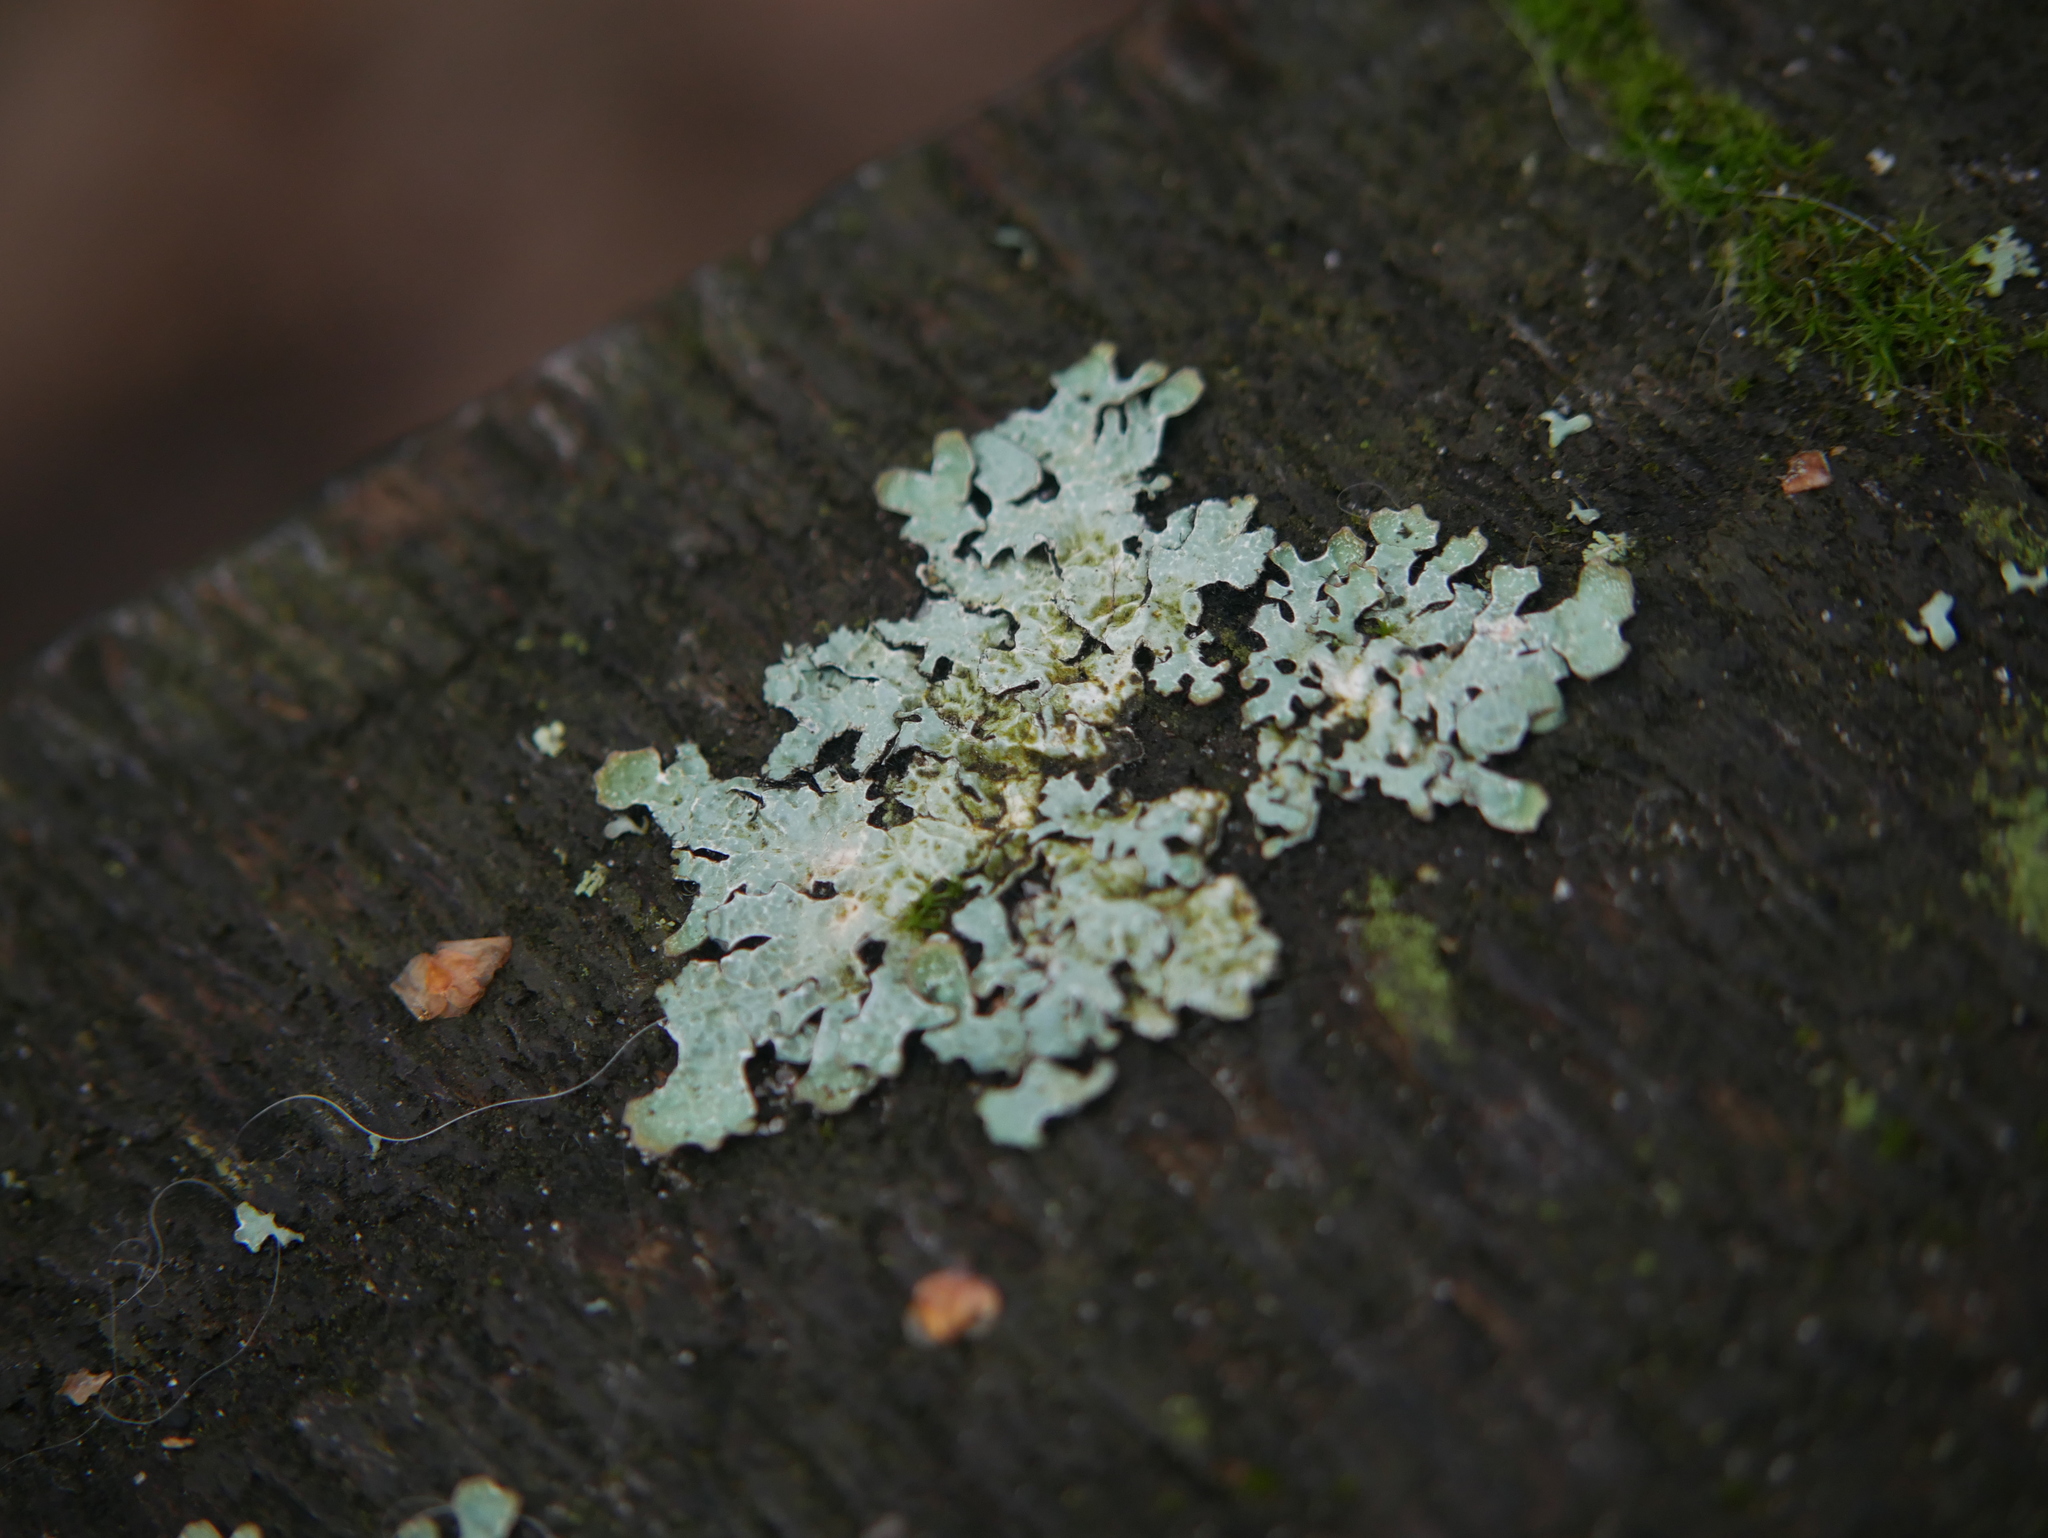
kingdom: Fungi
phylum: Ascomycota
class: Lecanoromycetes
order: Lecanorales
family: Parmeliaceae
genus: Parmelia
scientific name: Parmelia sulcata
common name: Netted shield lichen
